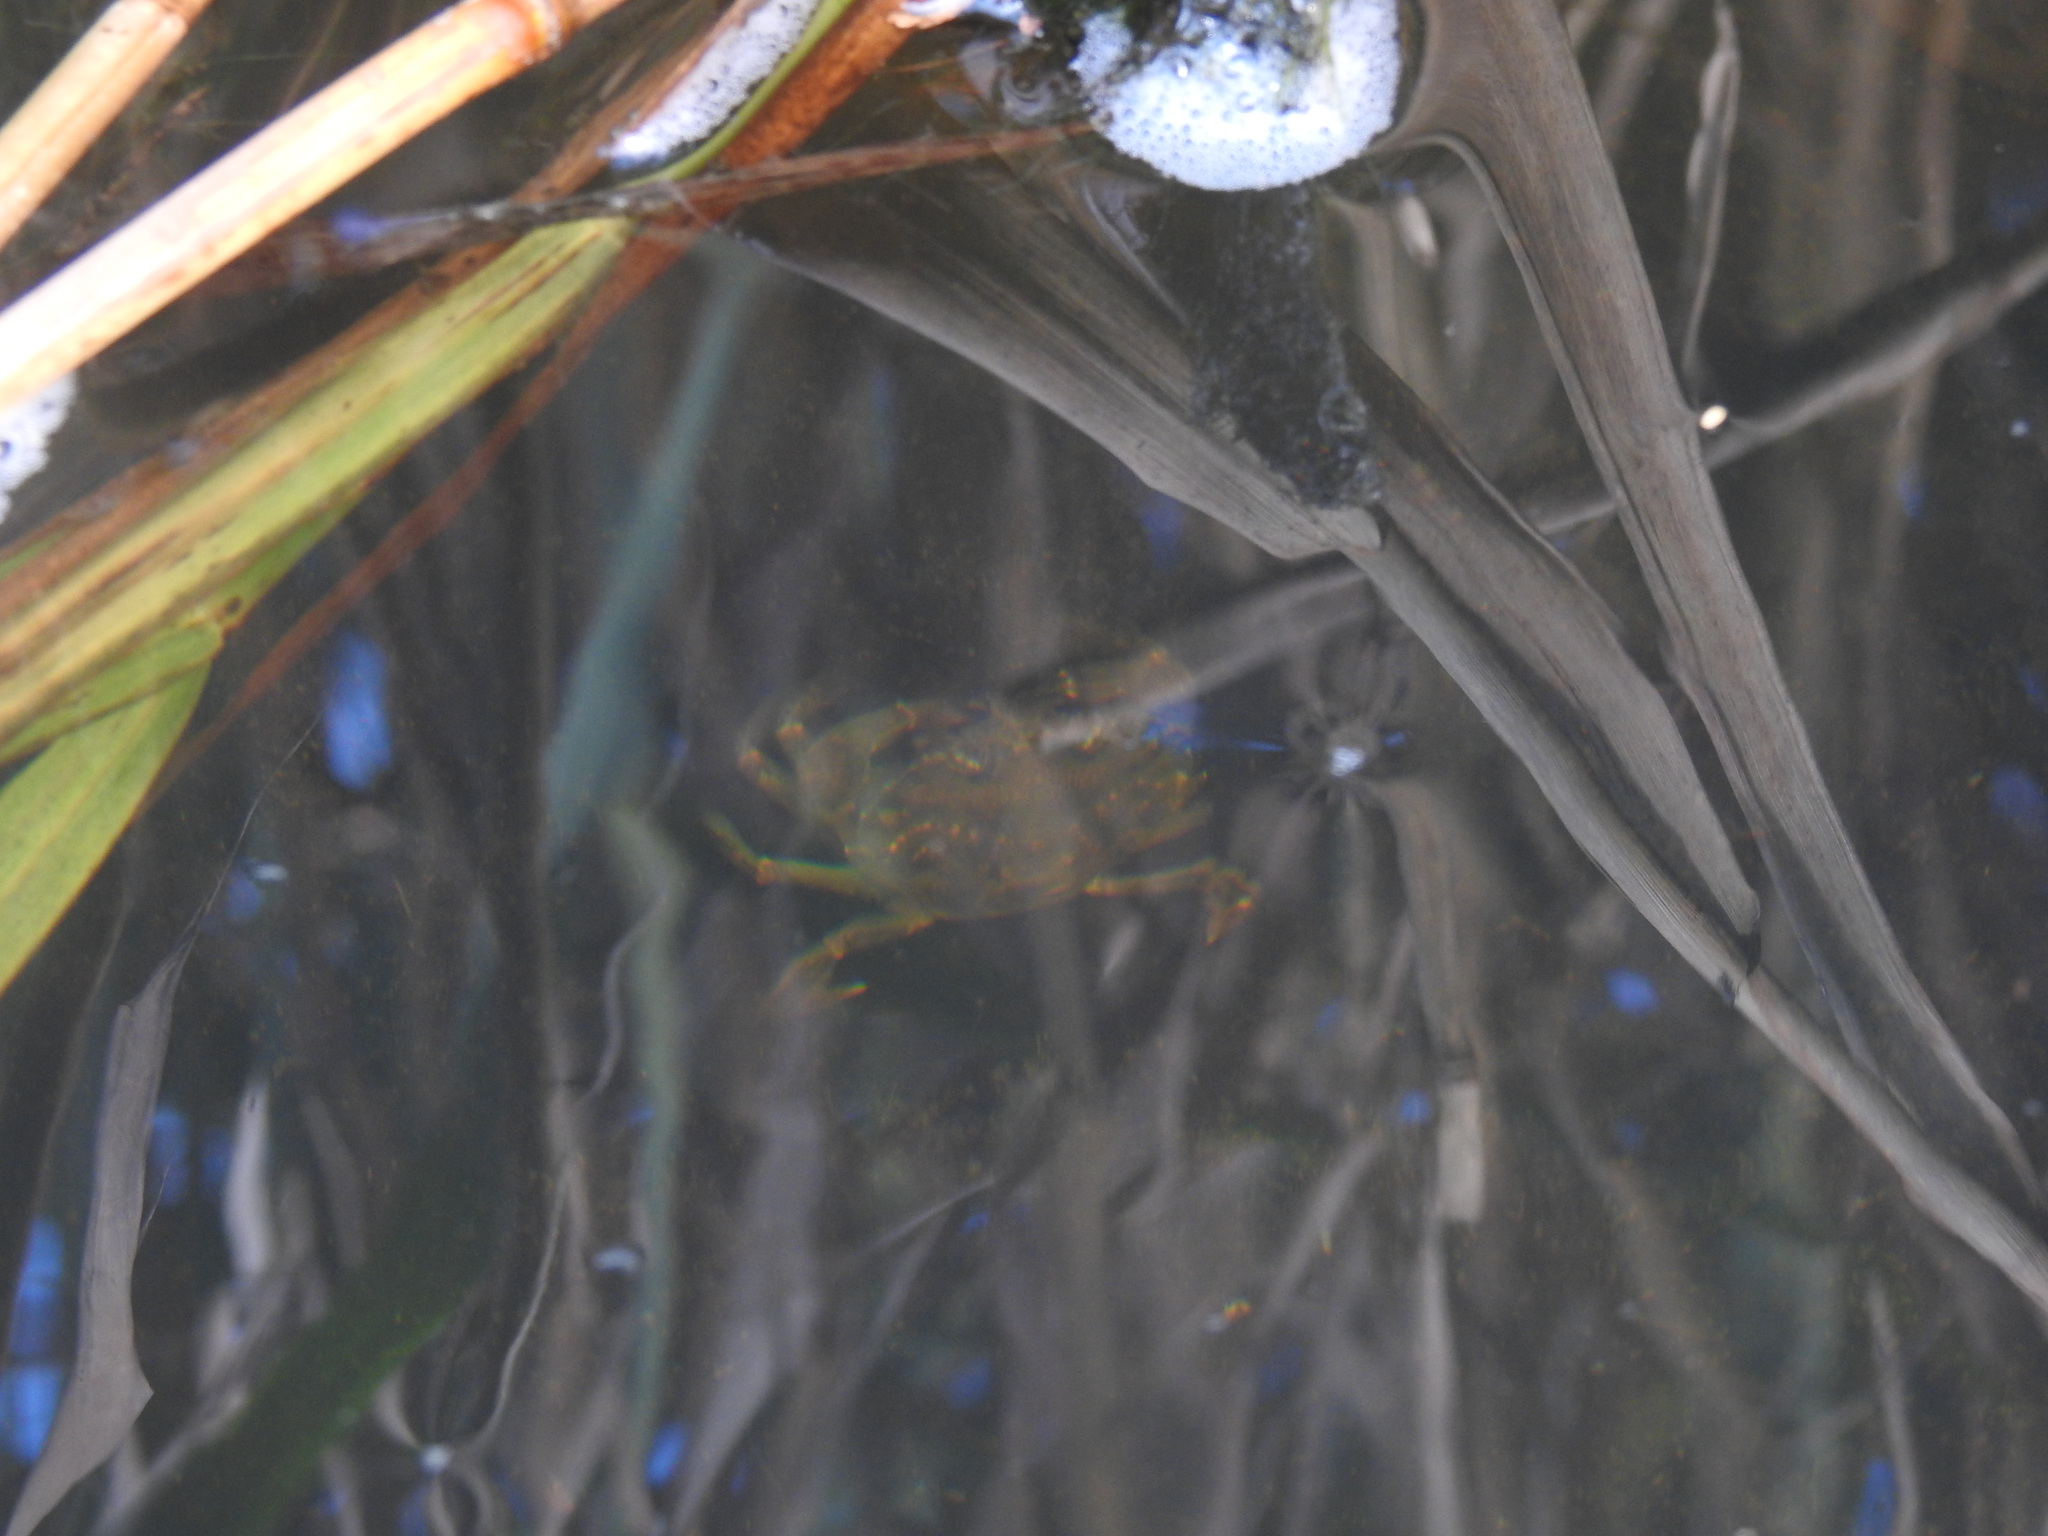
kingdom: Animalia
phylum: Arthropoda
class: Malacostraca
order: Decapoda
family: Carcinidae
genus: Carcinus
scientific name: Carcinus maenas
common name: European green crab
